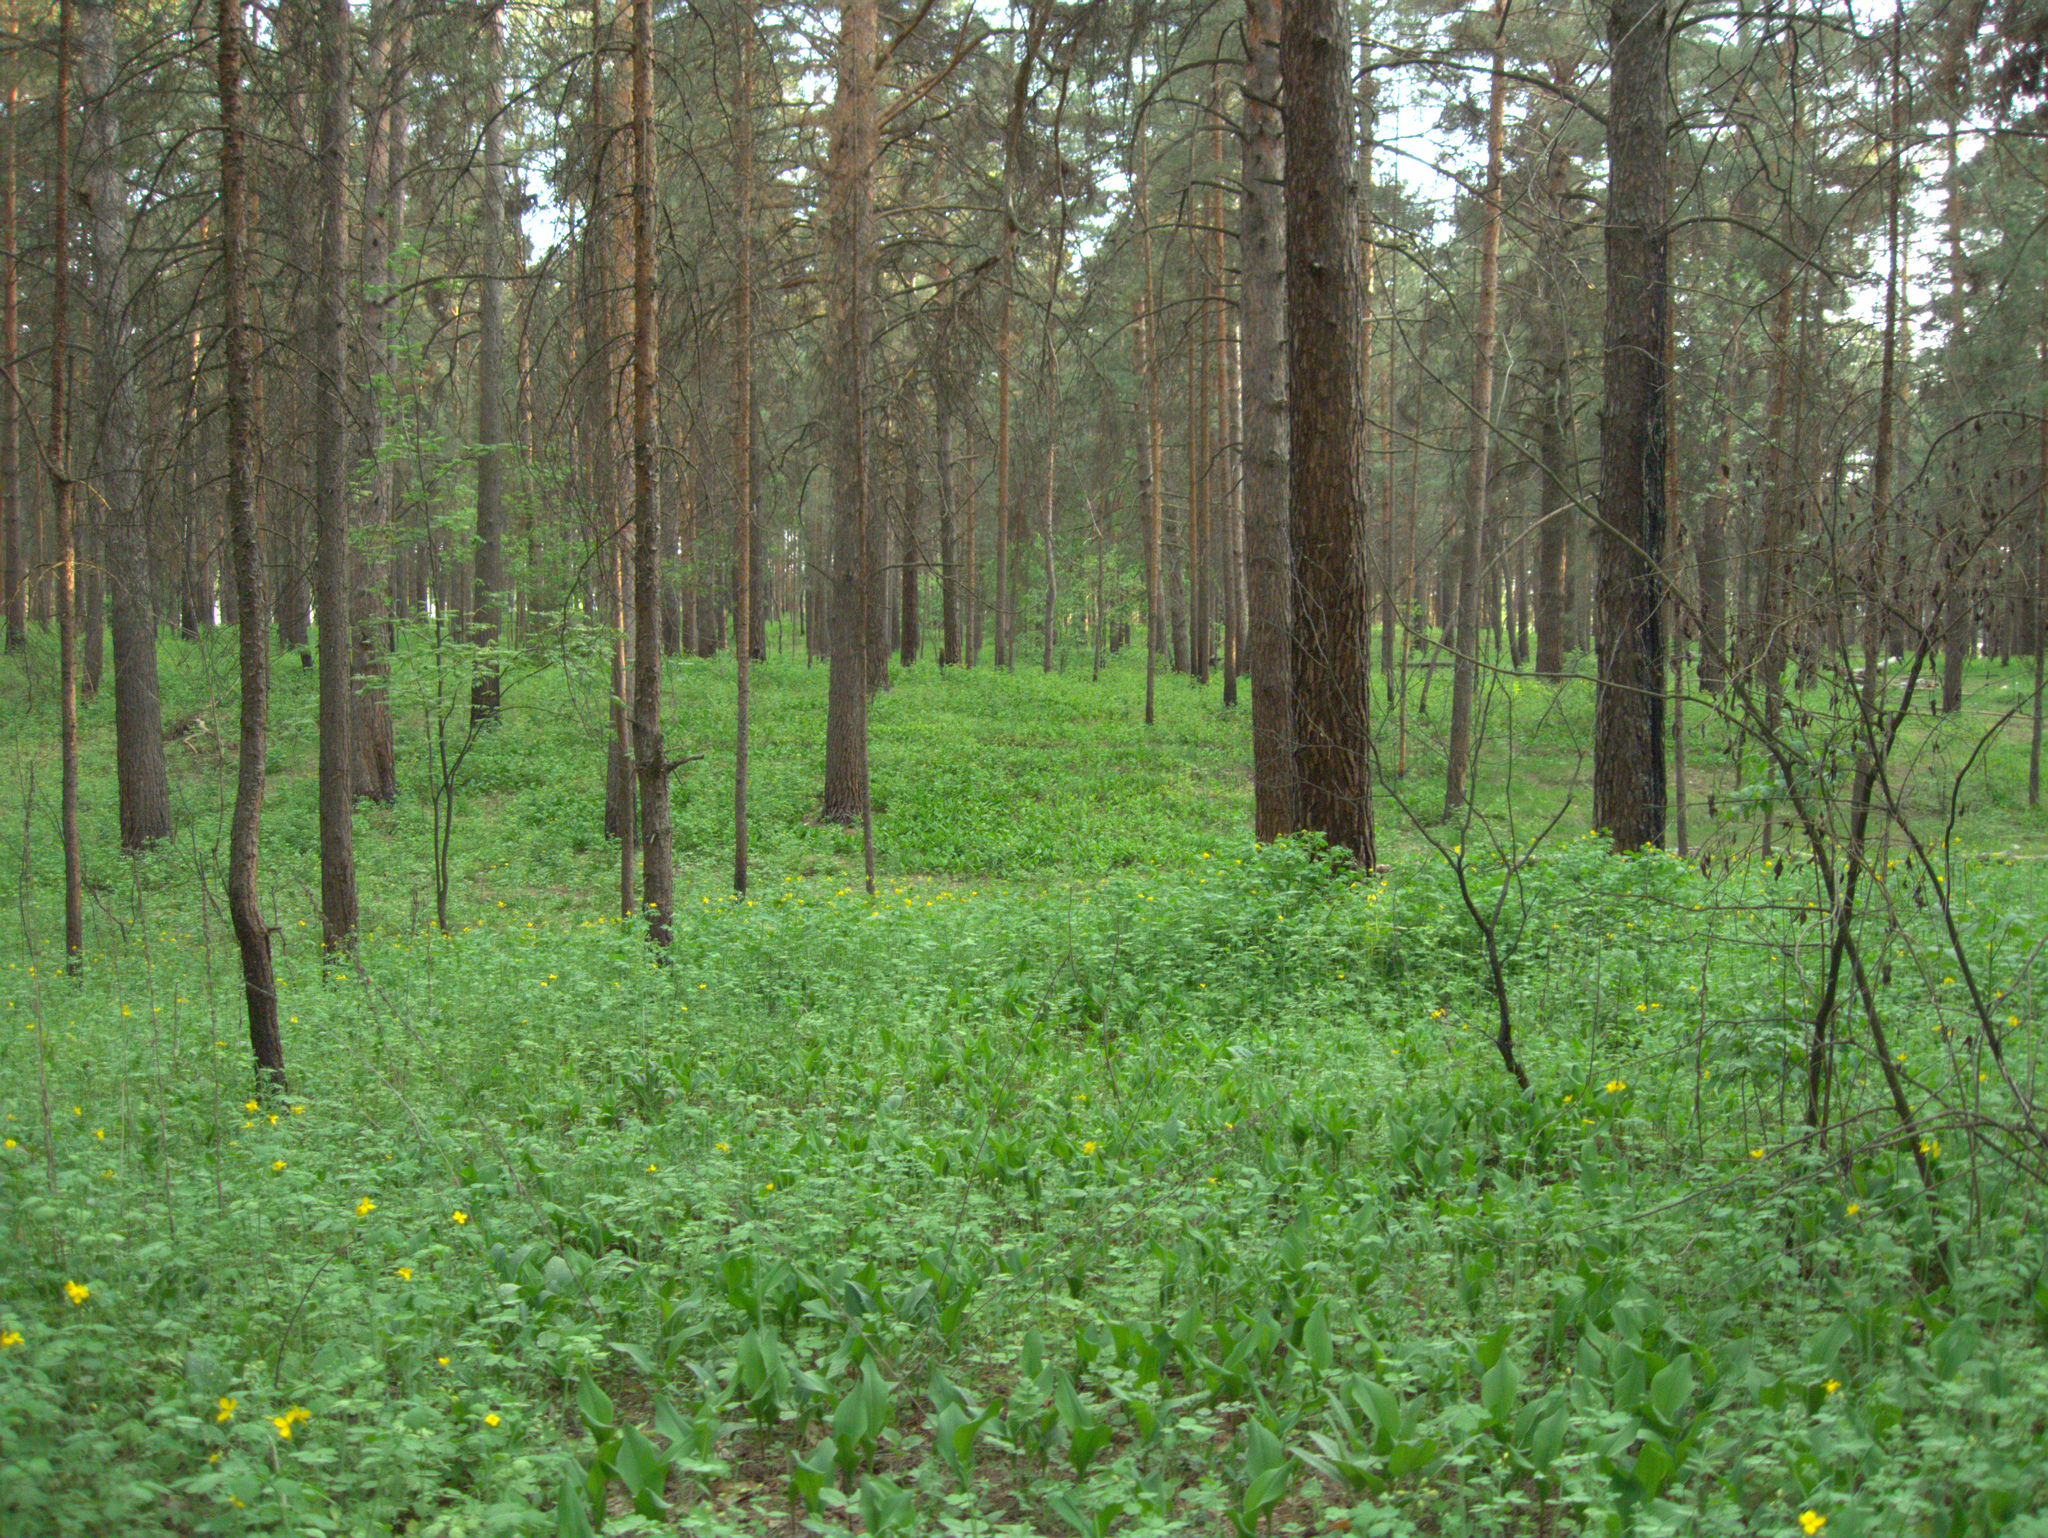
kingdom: Plantae
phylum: Tracheophyta
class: Magnoliopsida
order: Ranunculales
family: Papaveraceae
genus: Chelidonium
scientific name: Chelidonium majus
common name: Greater celandine
